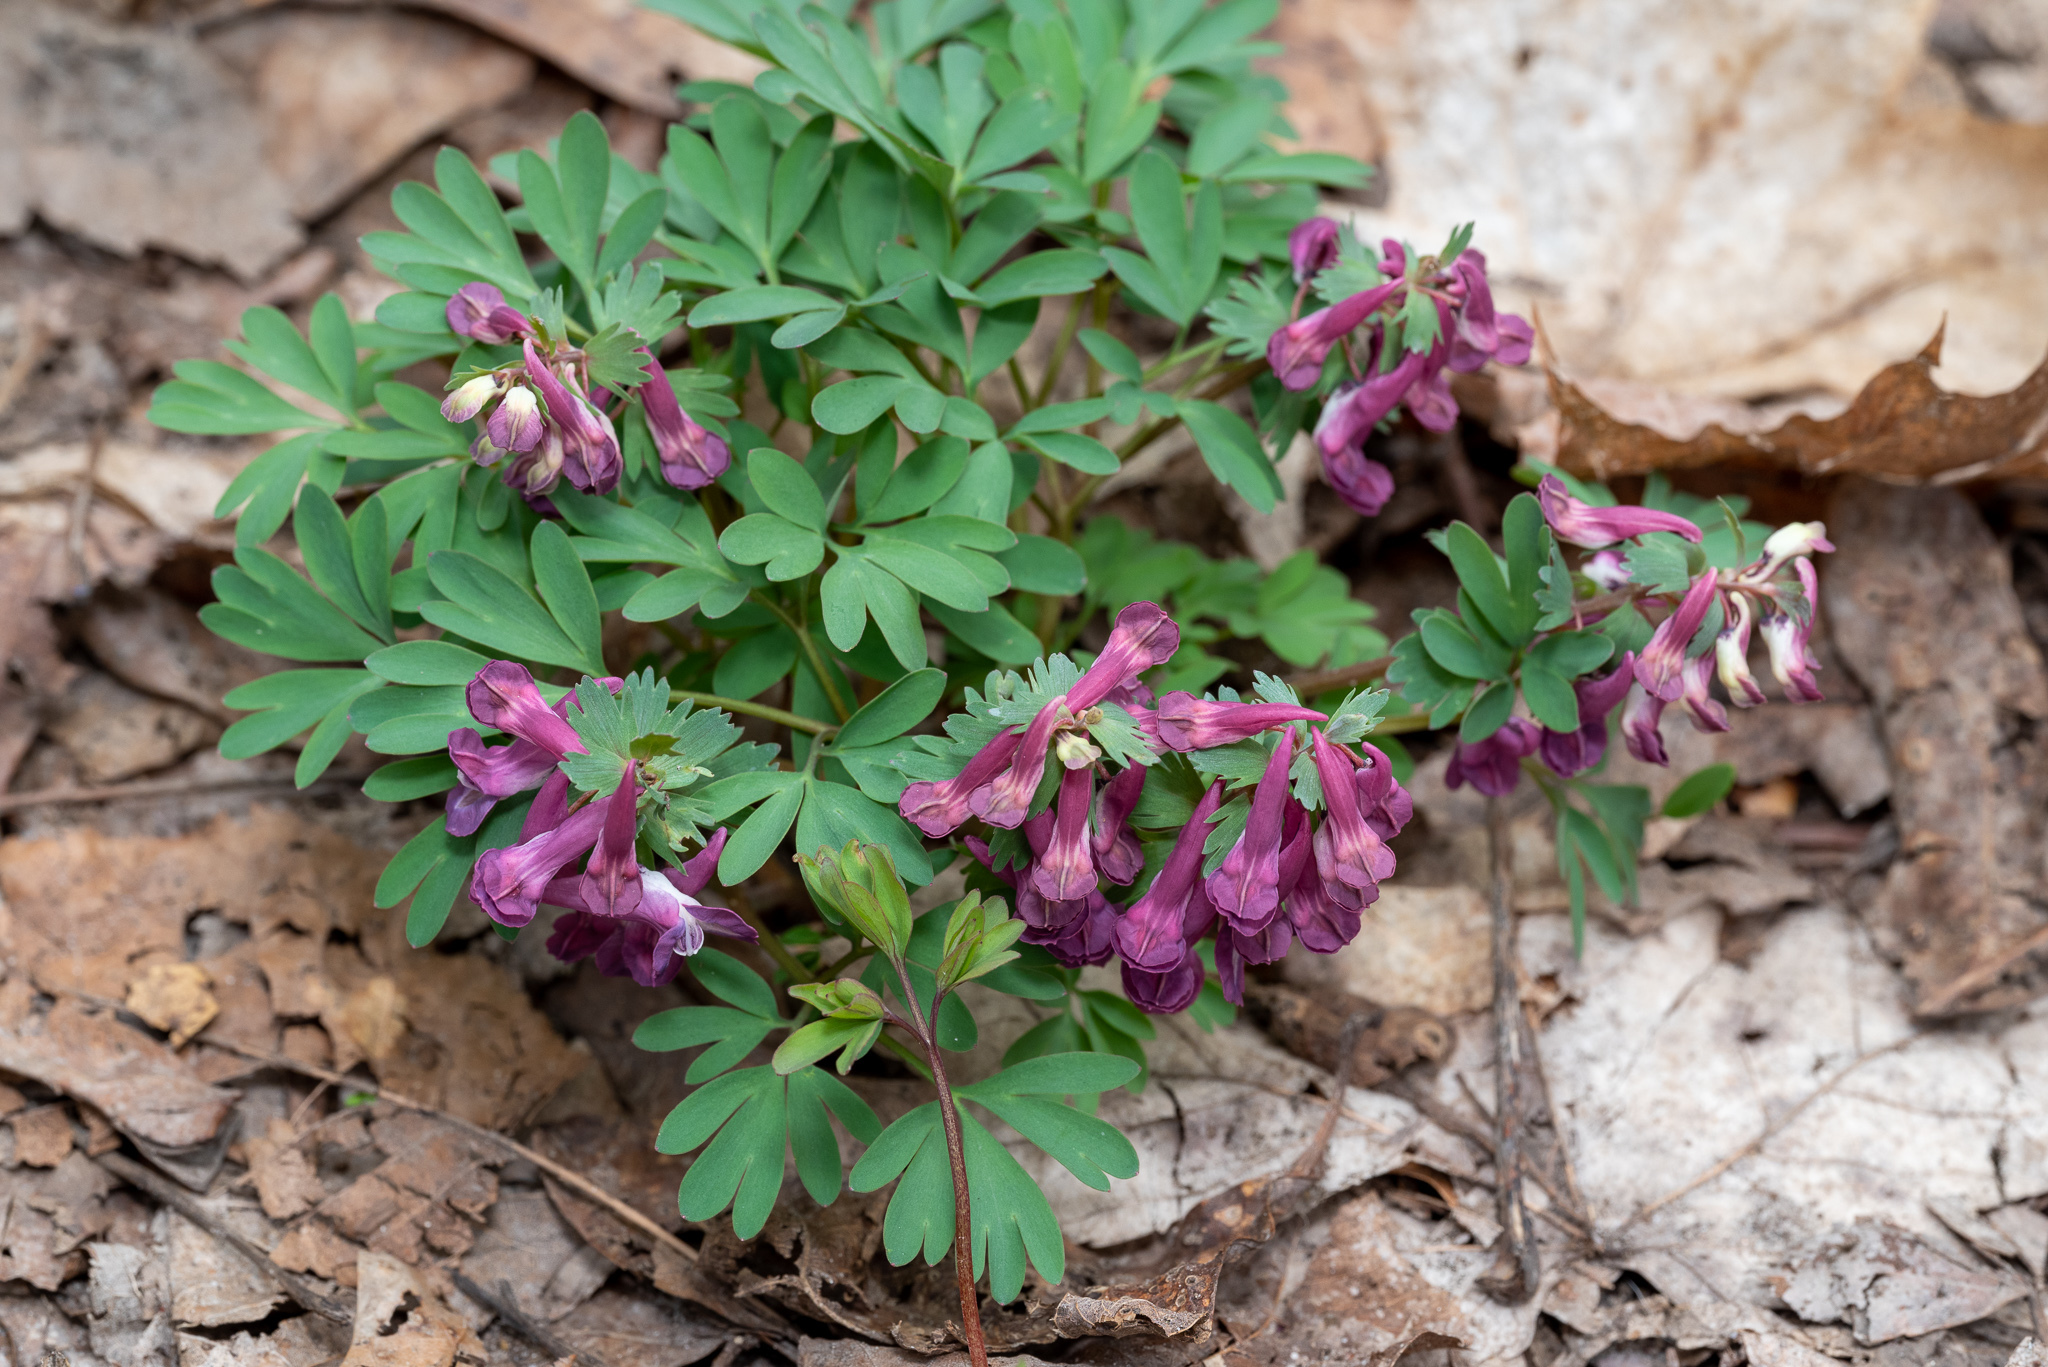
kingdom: Plantae
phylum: Tracheophyta
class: Magnoliopsida
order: Ranunculales
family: Papaveraceae
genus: Corydalis
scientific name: Corydalis solida
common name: Bird-in-a-bush
